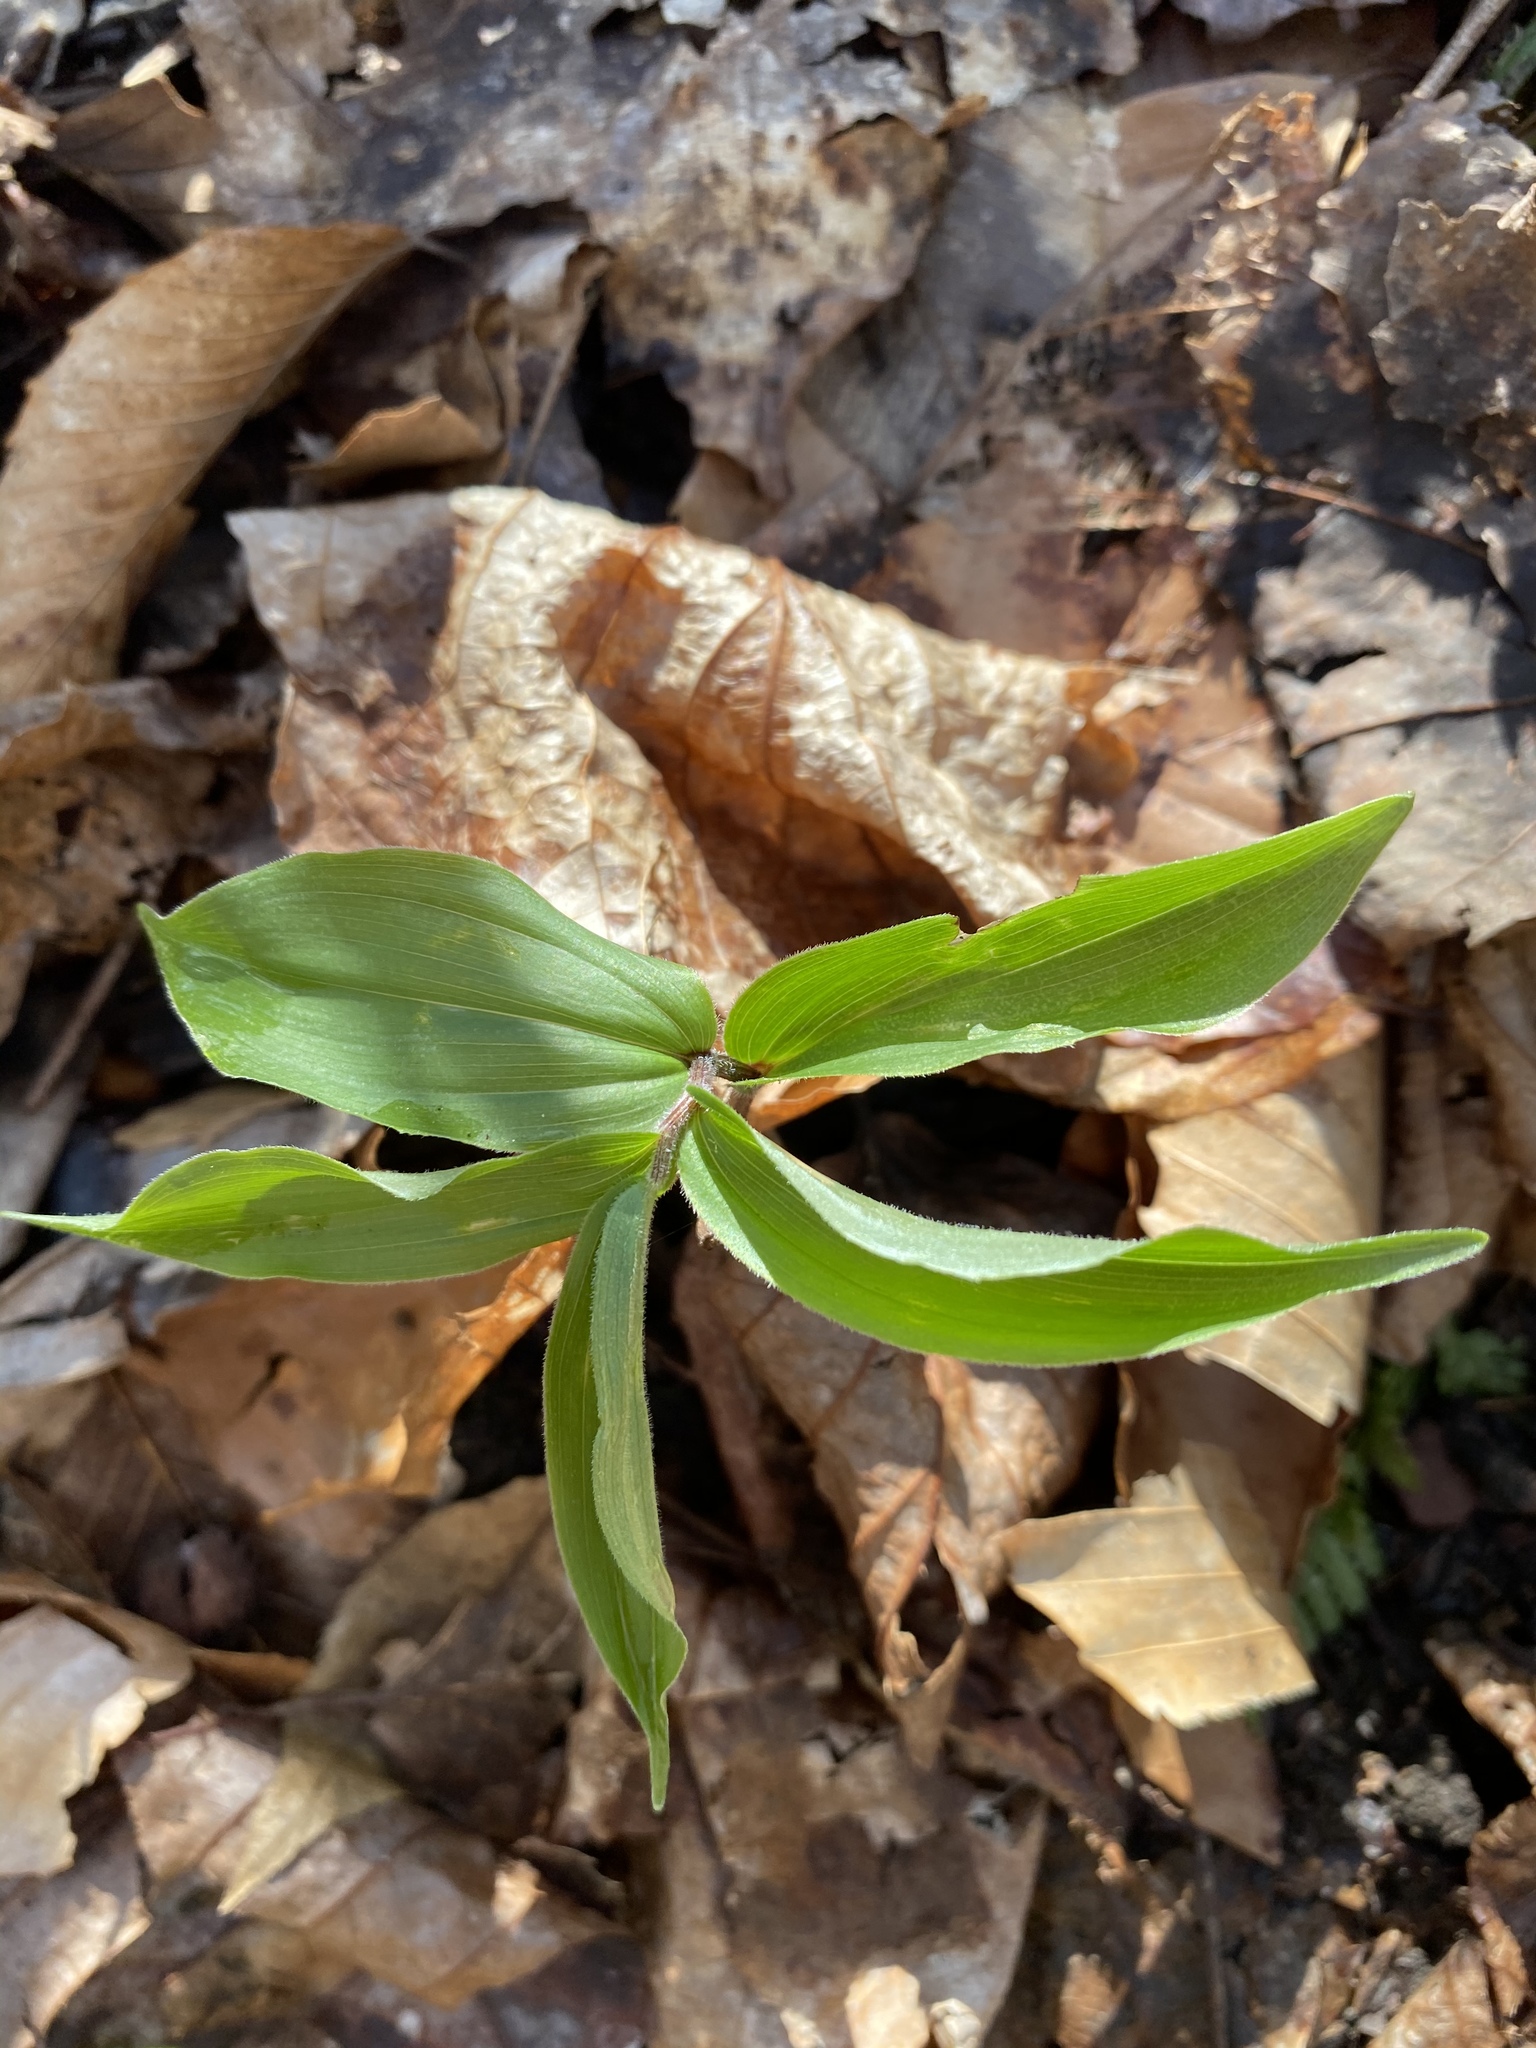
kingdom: Plantae
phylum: Tracheophyta
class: Liliopsida
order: Asparagales
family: Asparagaceae
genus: Maianthemum
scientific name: Maianthemum racemosum
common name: False spikenard
